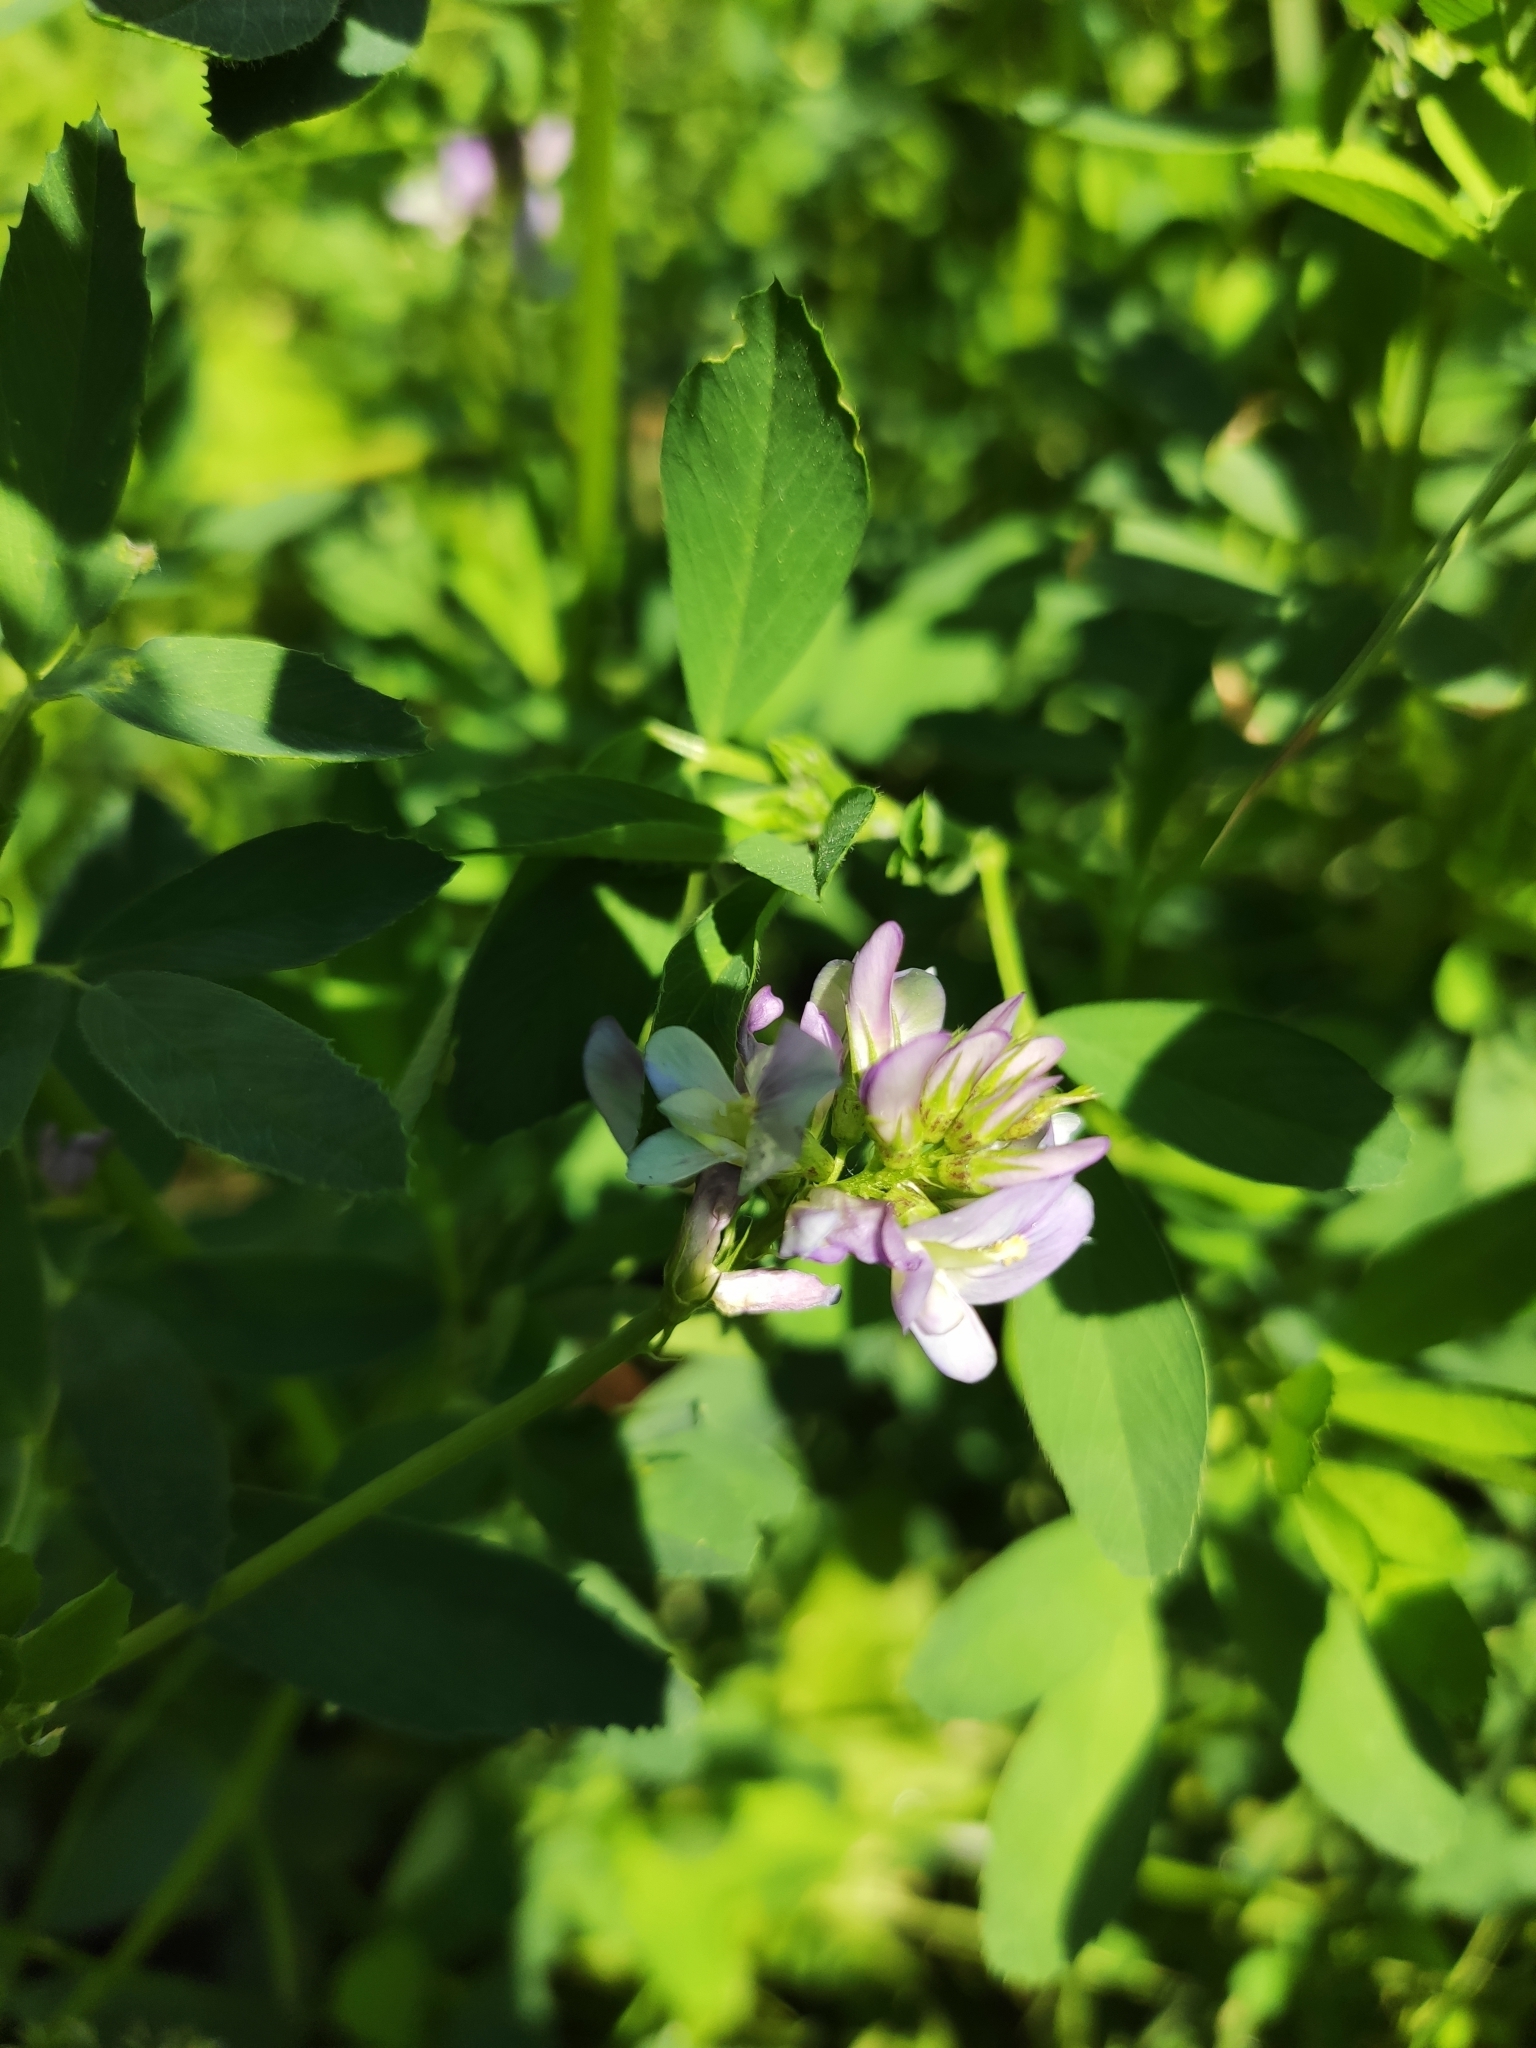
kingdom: Plantae
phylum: Tracheophyta
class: Magnoliopsida
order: Fabales
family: Fabaceae
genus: Medicago
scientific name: Medicago varia
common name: Sand lucerne
